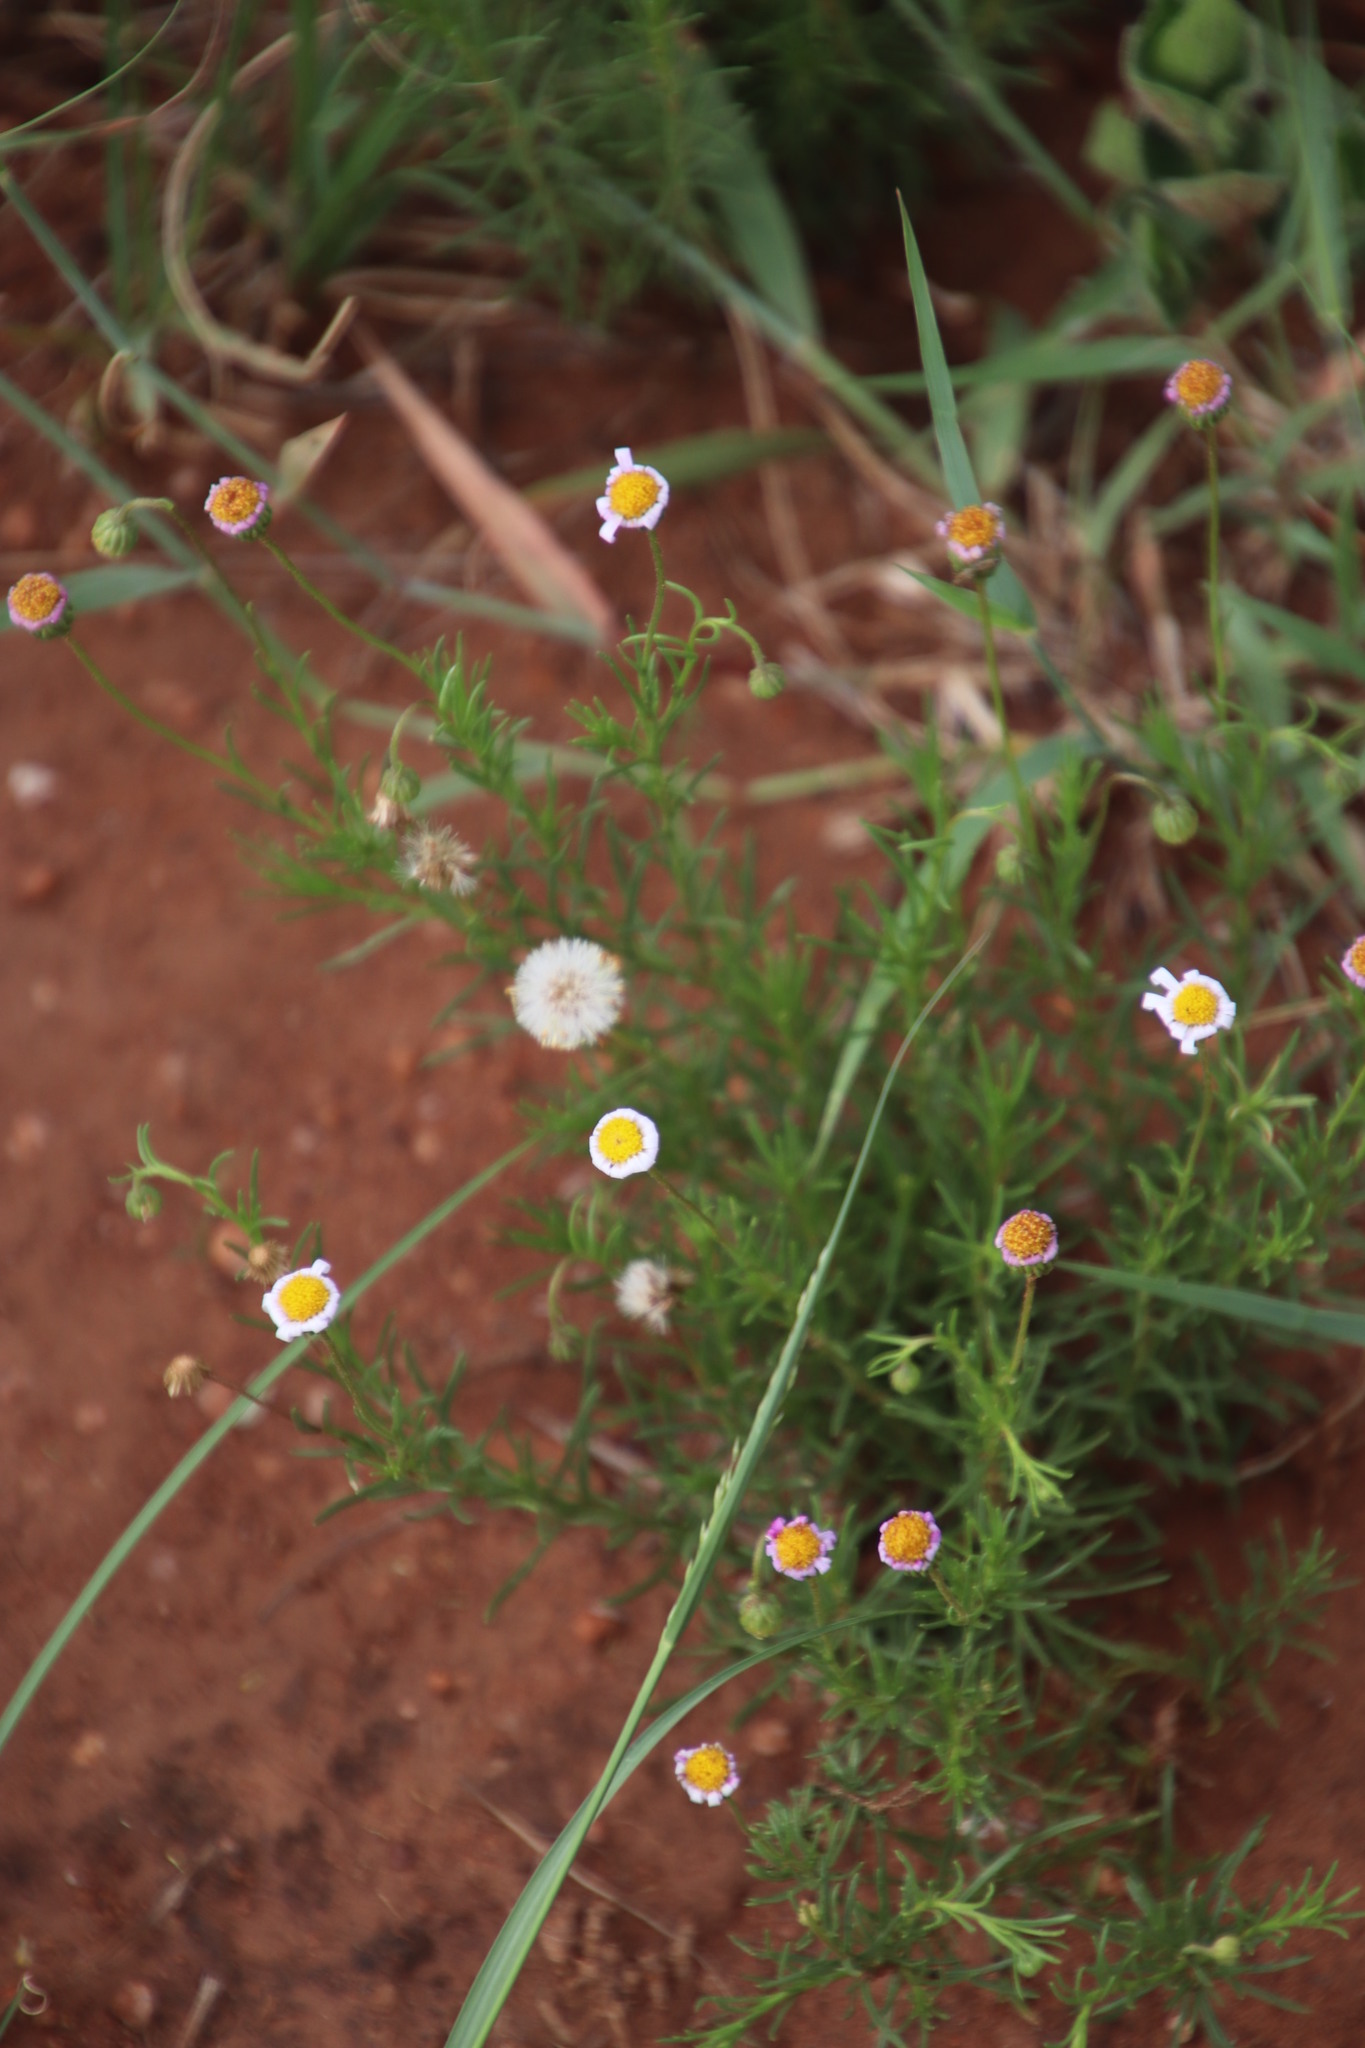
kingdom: Plantae
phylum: Tracheophyta
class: Magnoliopsida
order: Asterales
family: Asteraceae
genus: Felicia
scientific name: Felicia muricata
